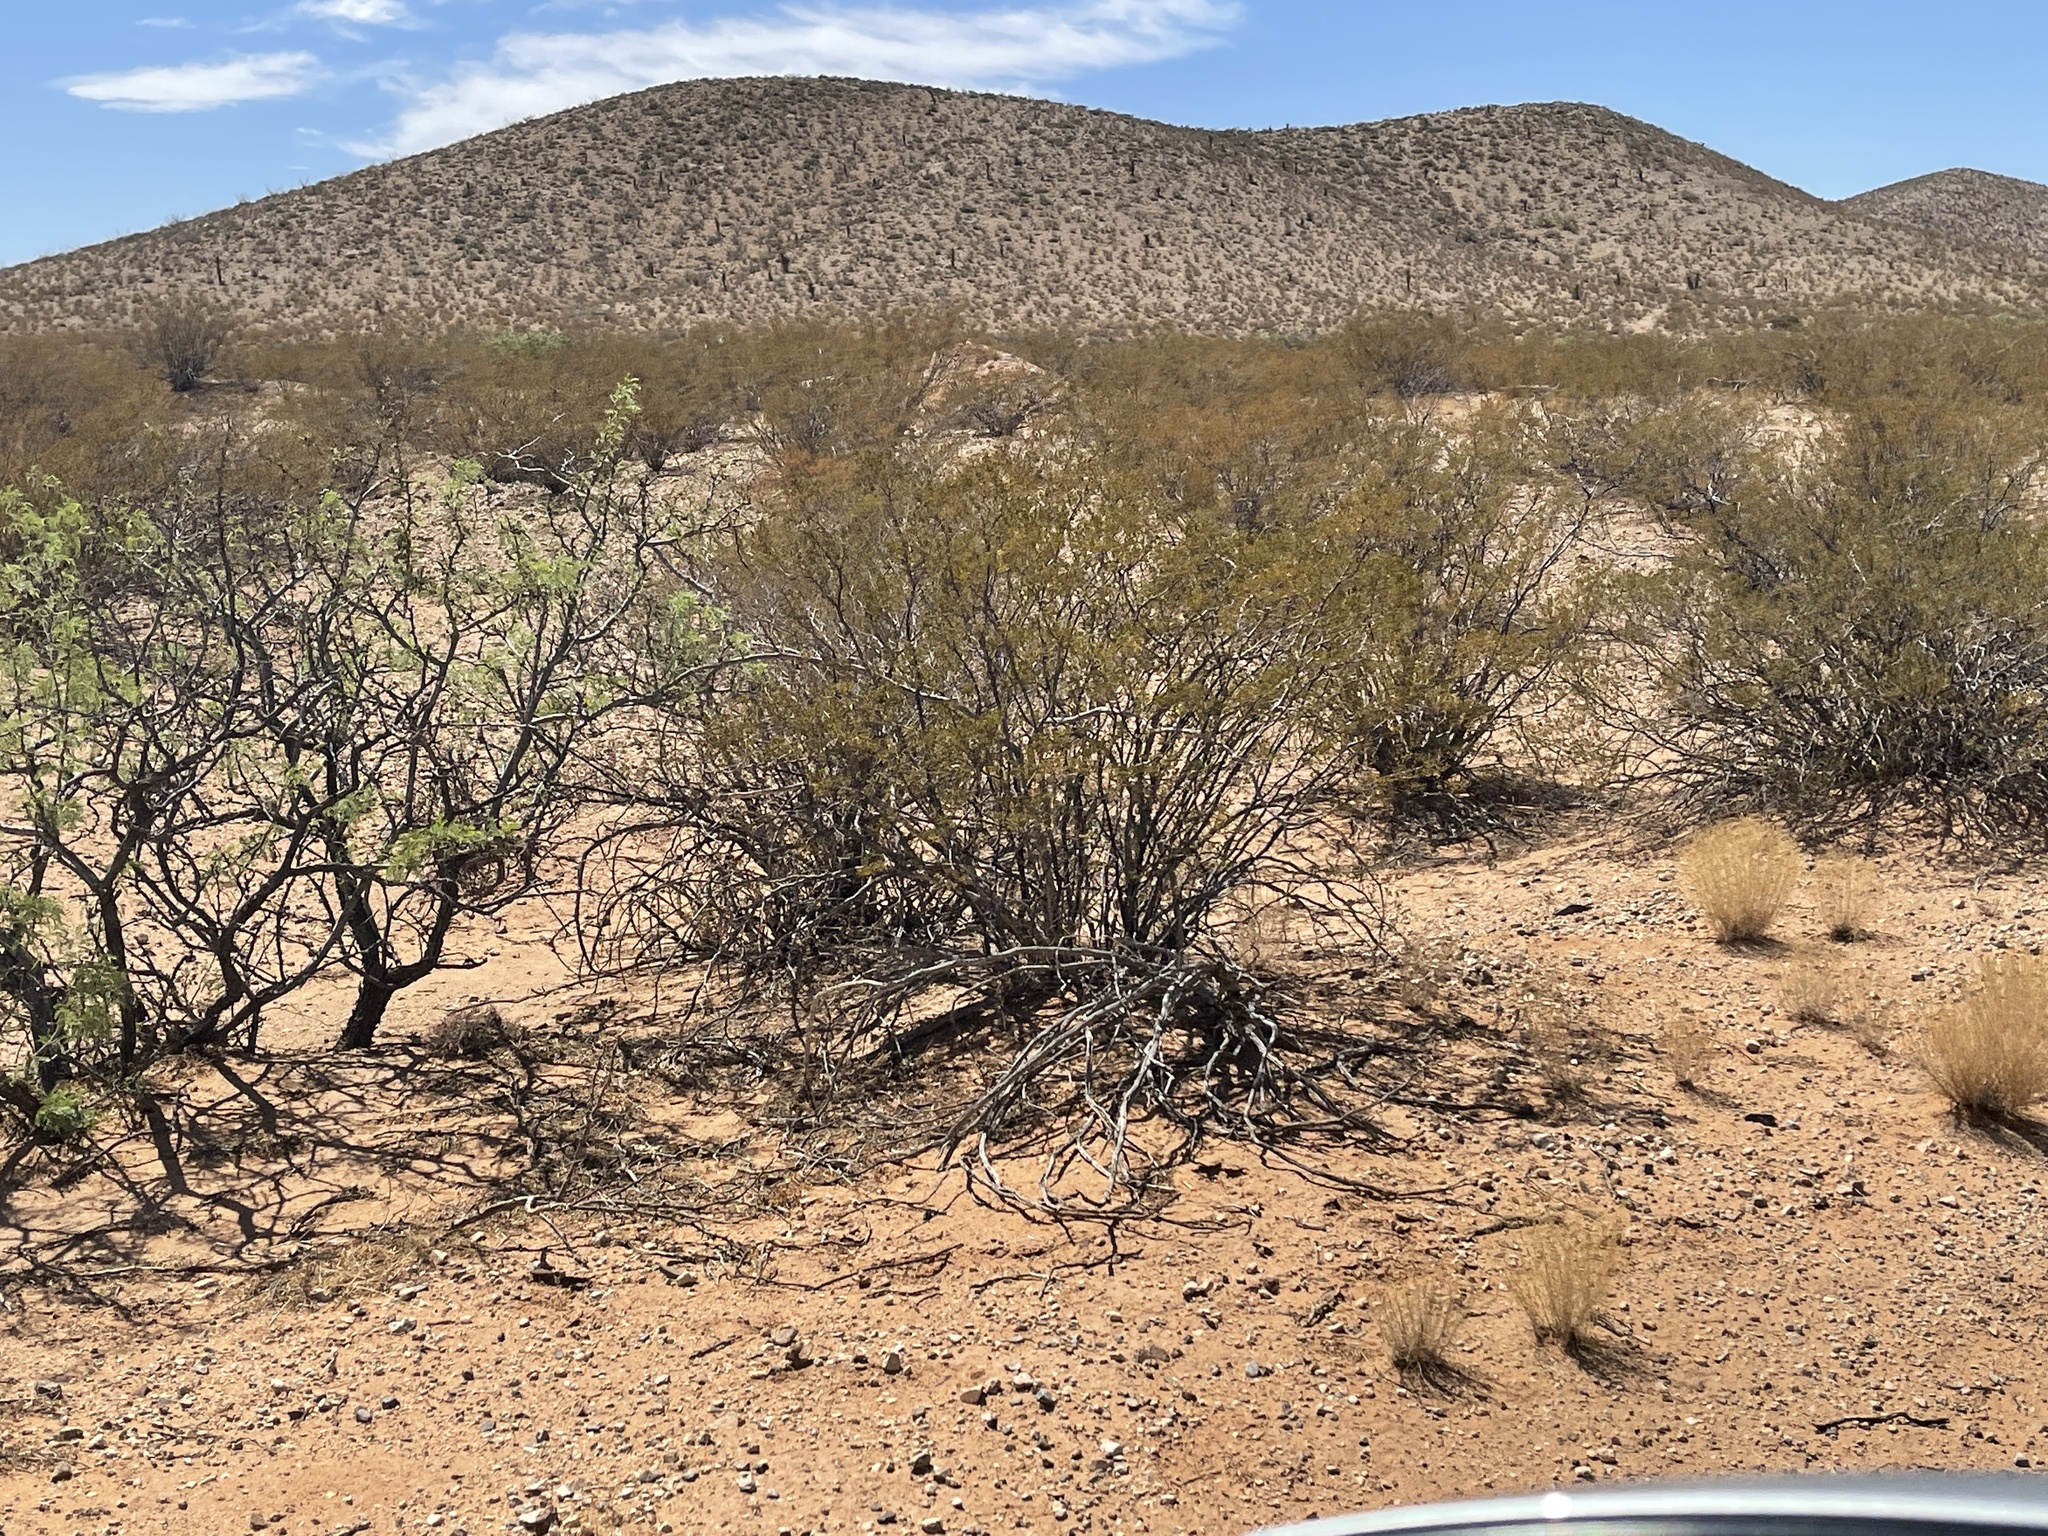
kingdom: Plantae
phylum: Tracheophyta
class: Magnoliopsida
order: Zygophyllales
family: Zygophyllaceae
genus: Larrea
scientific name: Larrea tridentata
